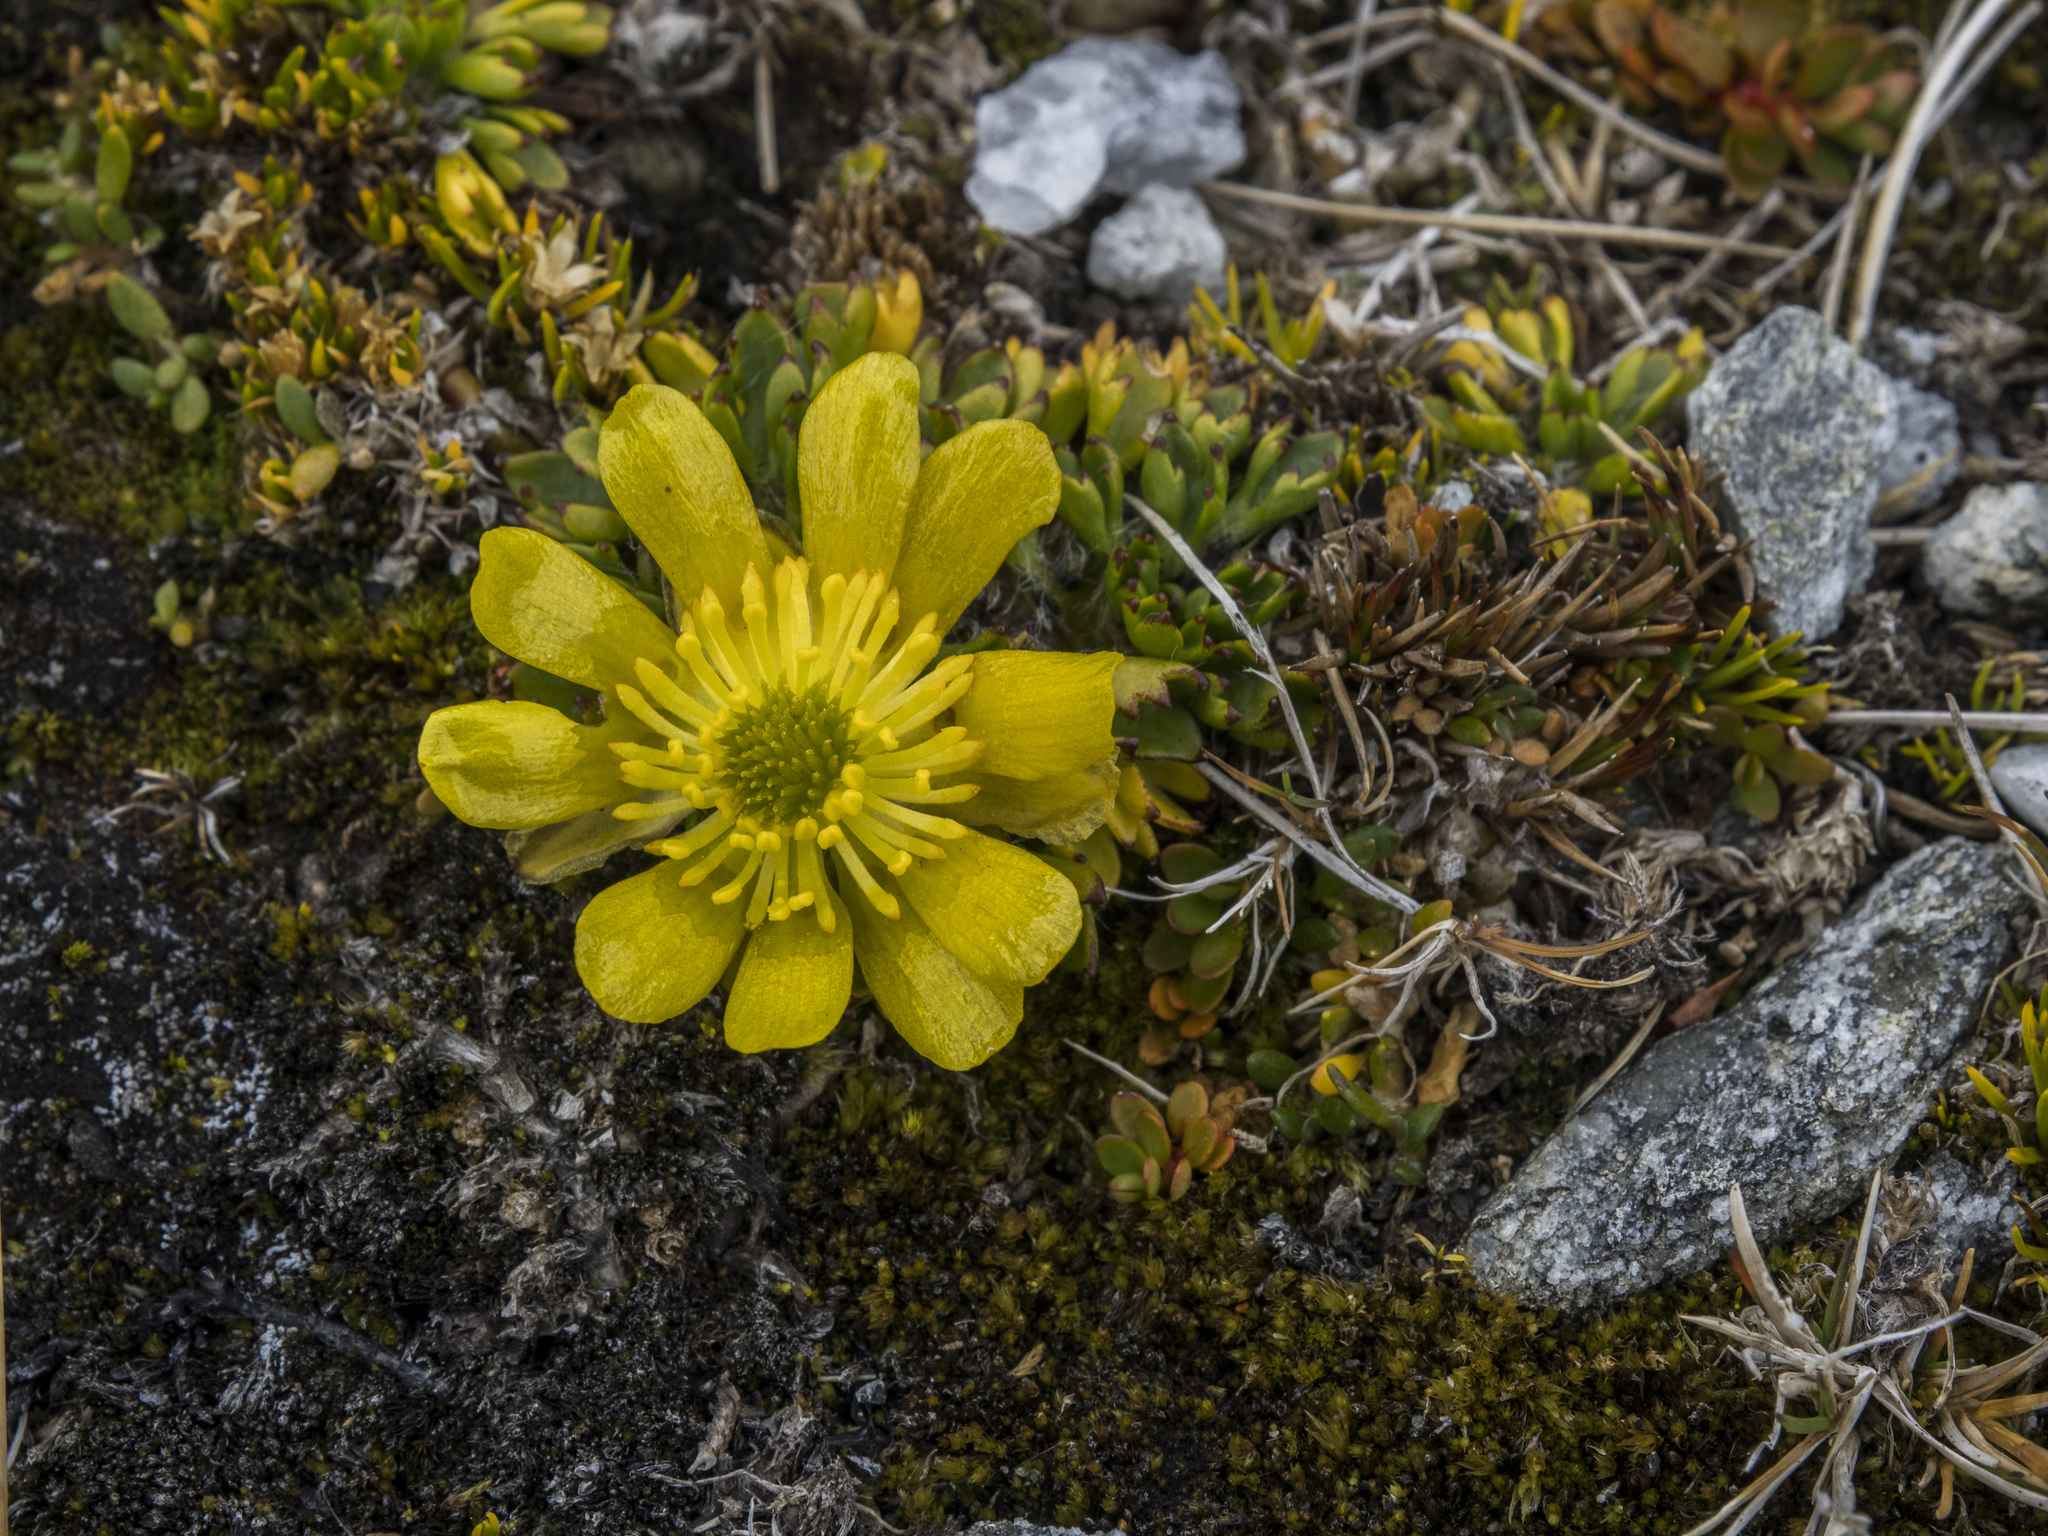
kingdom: Plantae
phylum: Tracheophyta
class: Magnoliopsida
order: Ranunculales
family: Ranunculaceae
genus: Ranunculus
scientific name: Ranunculus pachyrrhizus
